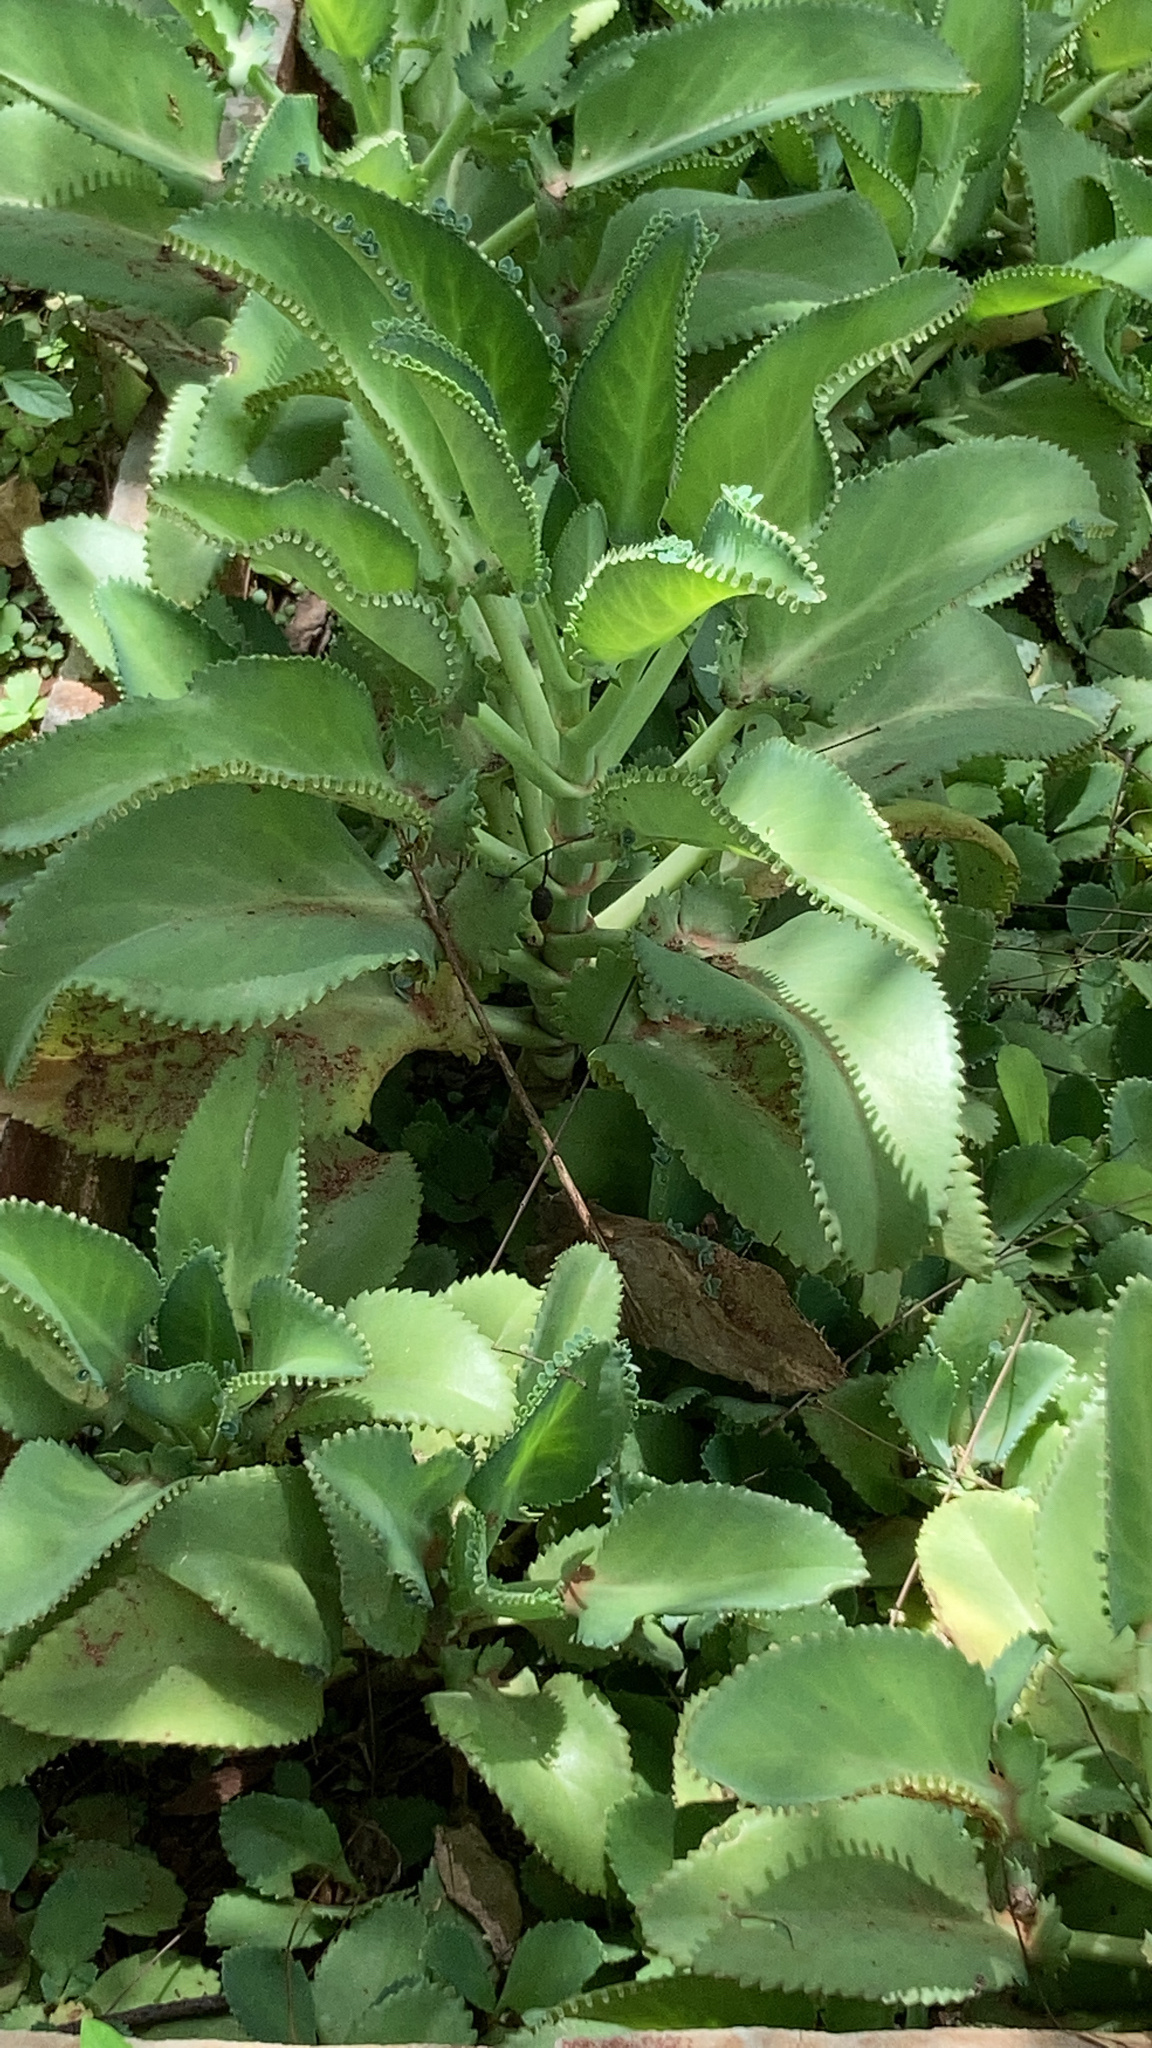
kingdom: Plantae
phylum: Tracheophyta
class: Magnoliopsida
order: Saxifragales
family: Crassulaceae
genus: Kalanchoe
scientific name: Kalanchoe laetivirens
